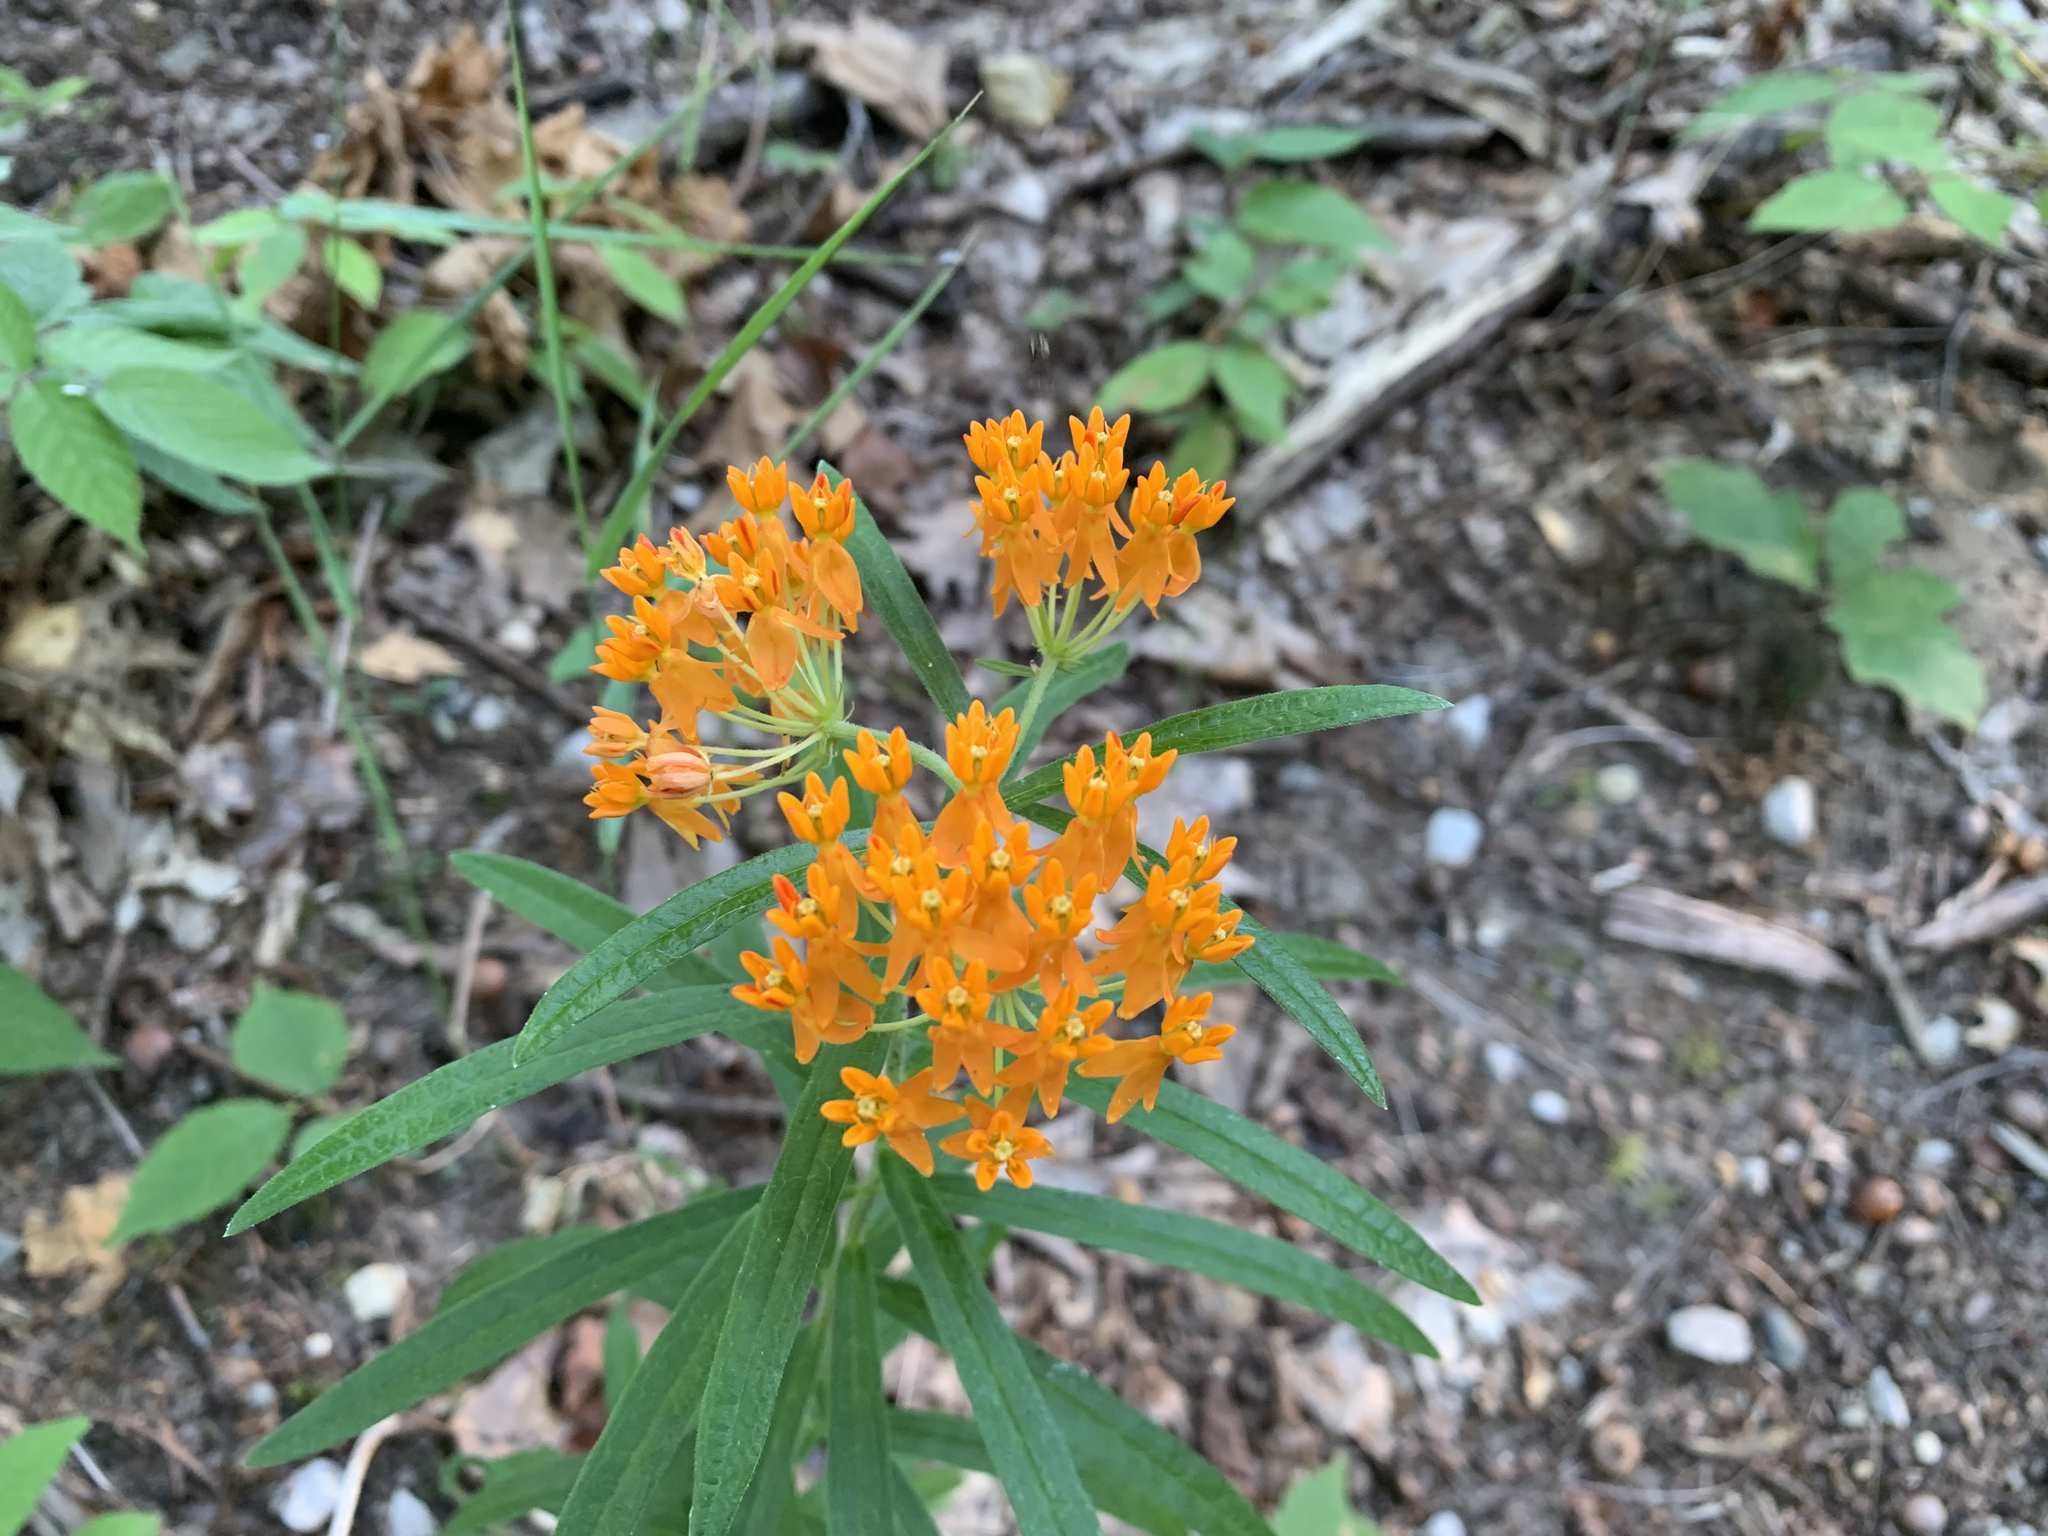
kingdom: Plantae
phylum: Tracheophyta
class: Magnoliopsida
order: Gentianales
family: Apocynaceae
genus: Asclepias
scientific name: Asclepias tuberosa
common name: Butterfly milkweed
